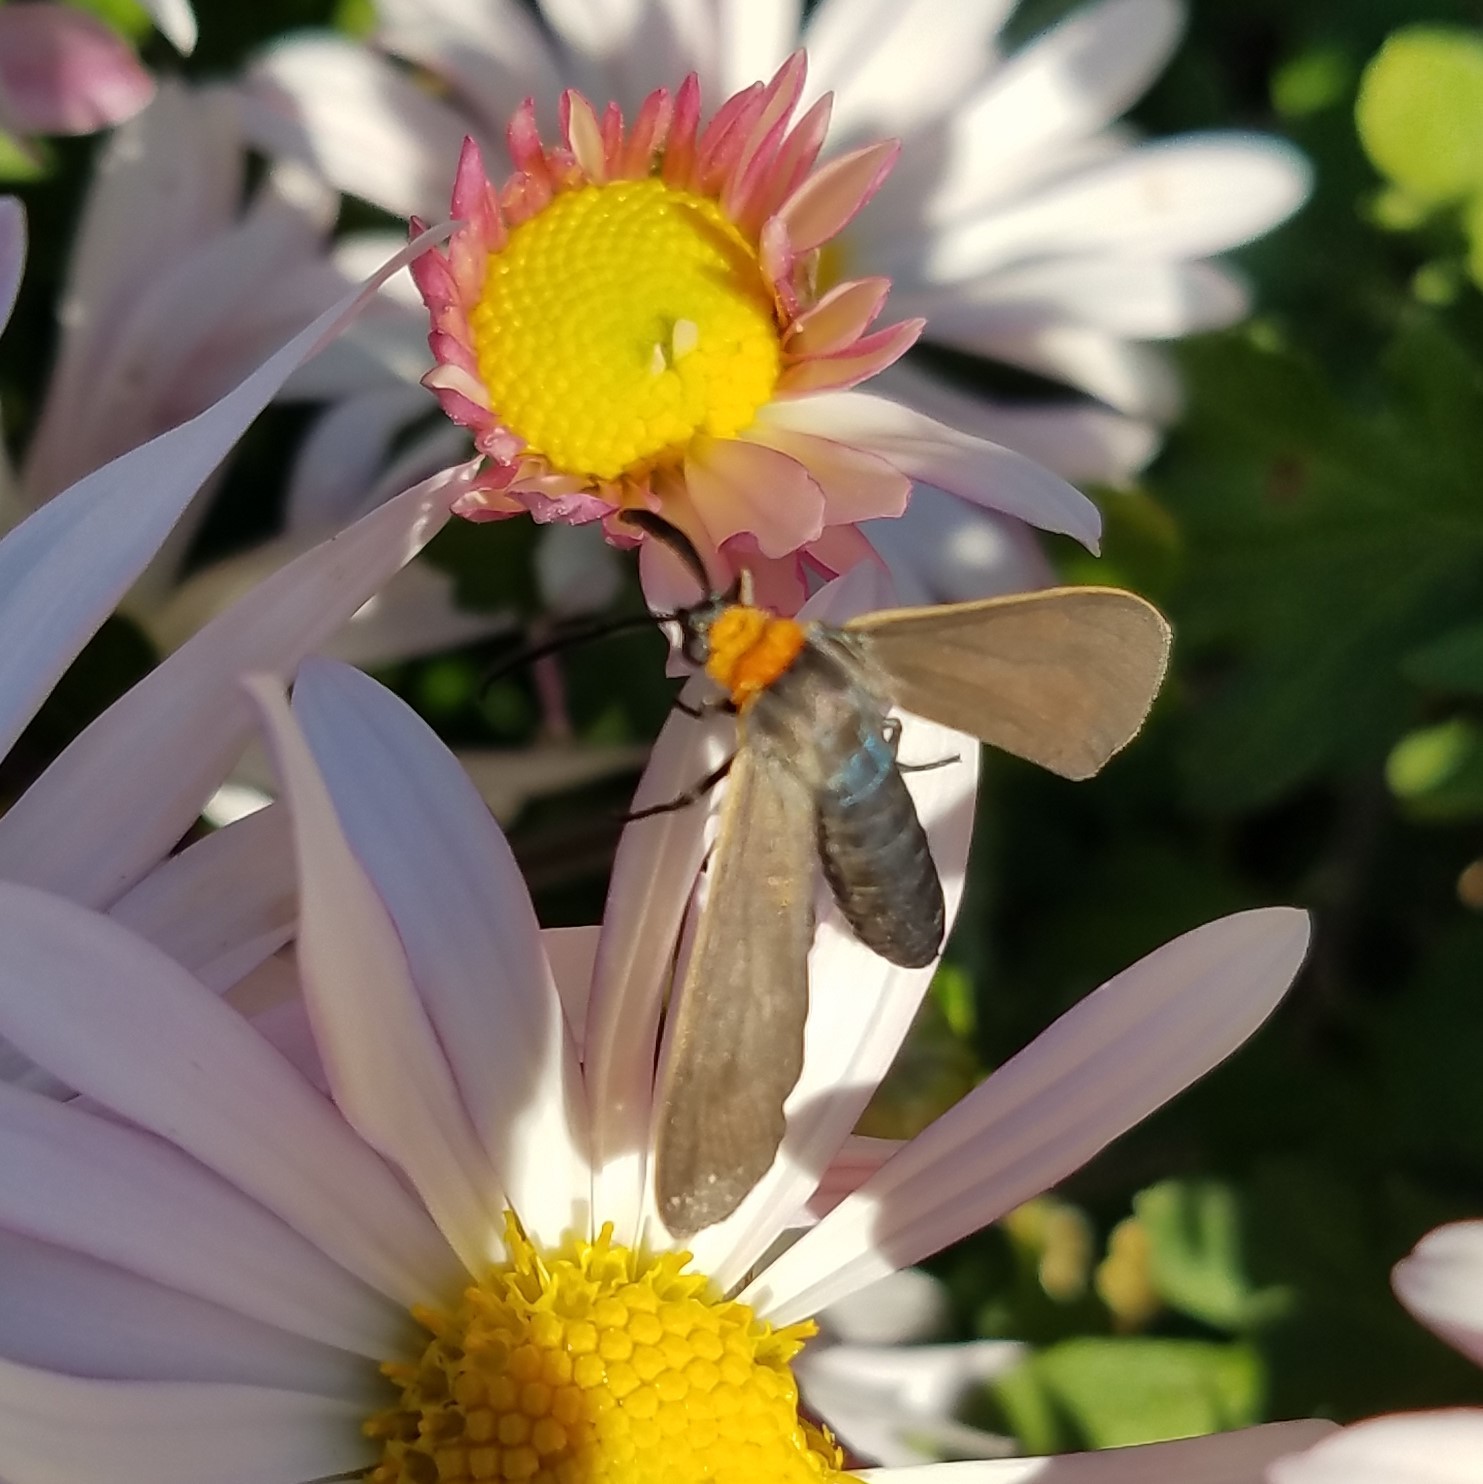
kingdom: Animalia
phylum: Arthropoda
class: Insecta
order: Lepidoptera
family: Erebidae
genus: Cisseps
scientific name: Cisseps fulvicollis
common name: Yellow-collared scape moth
